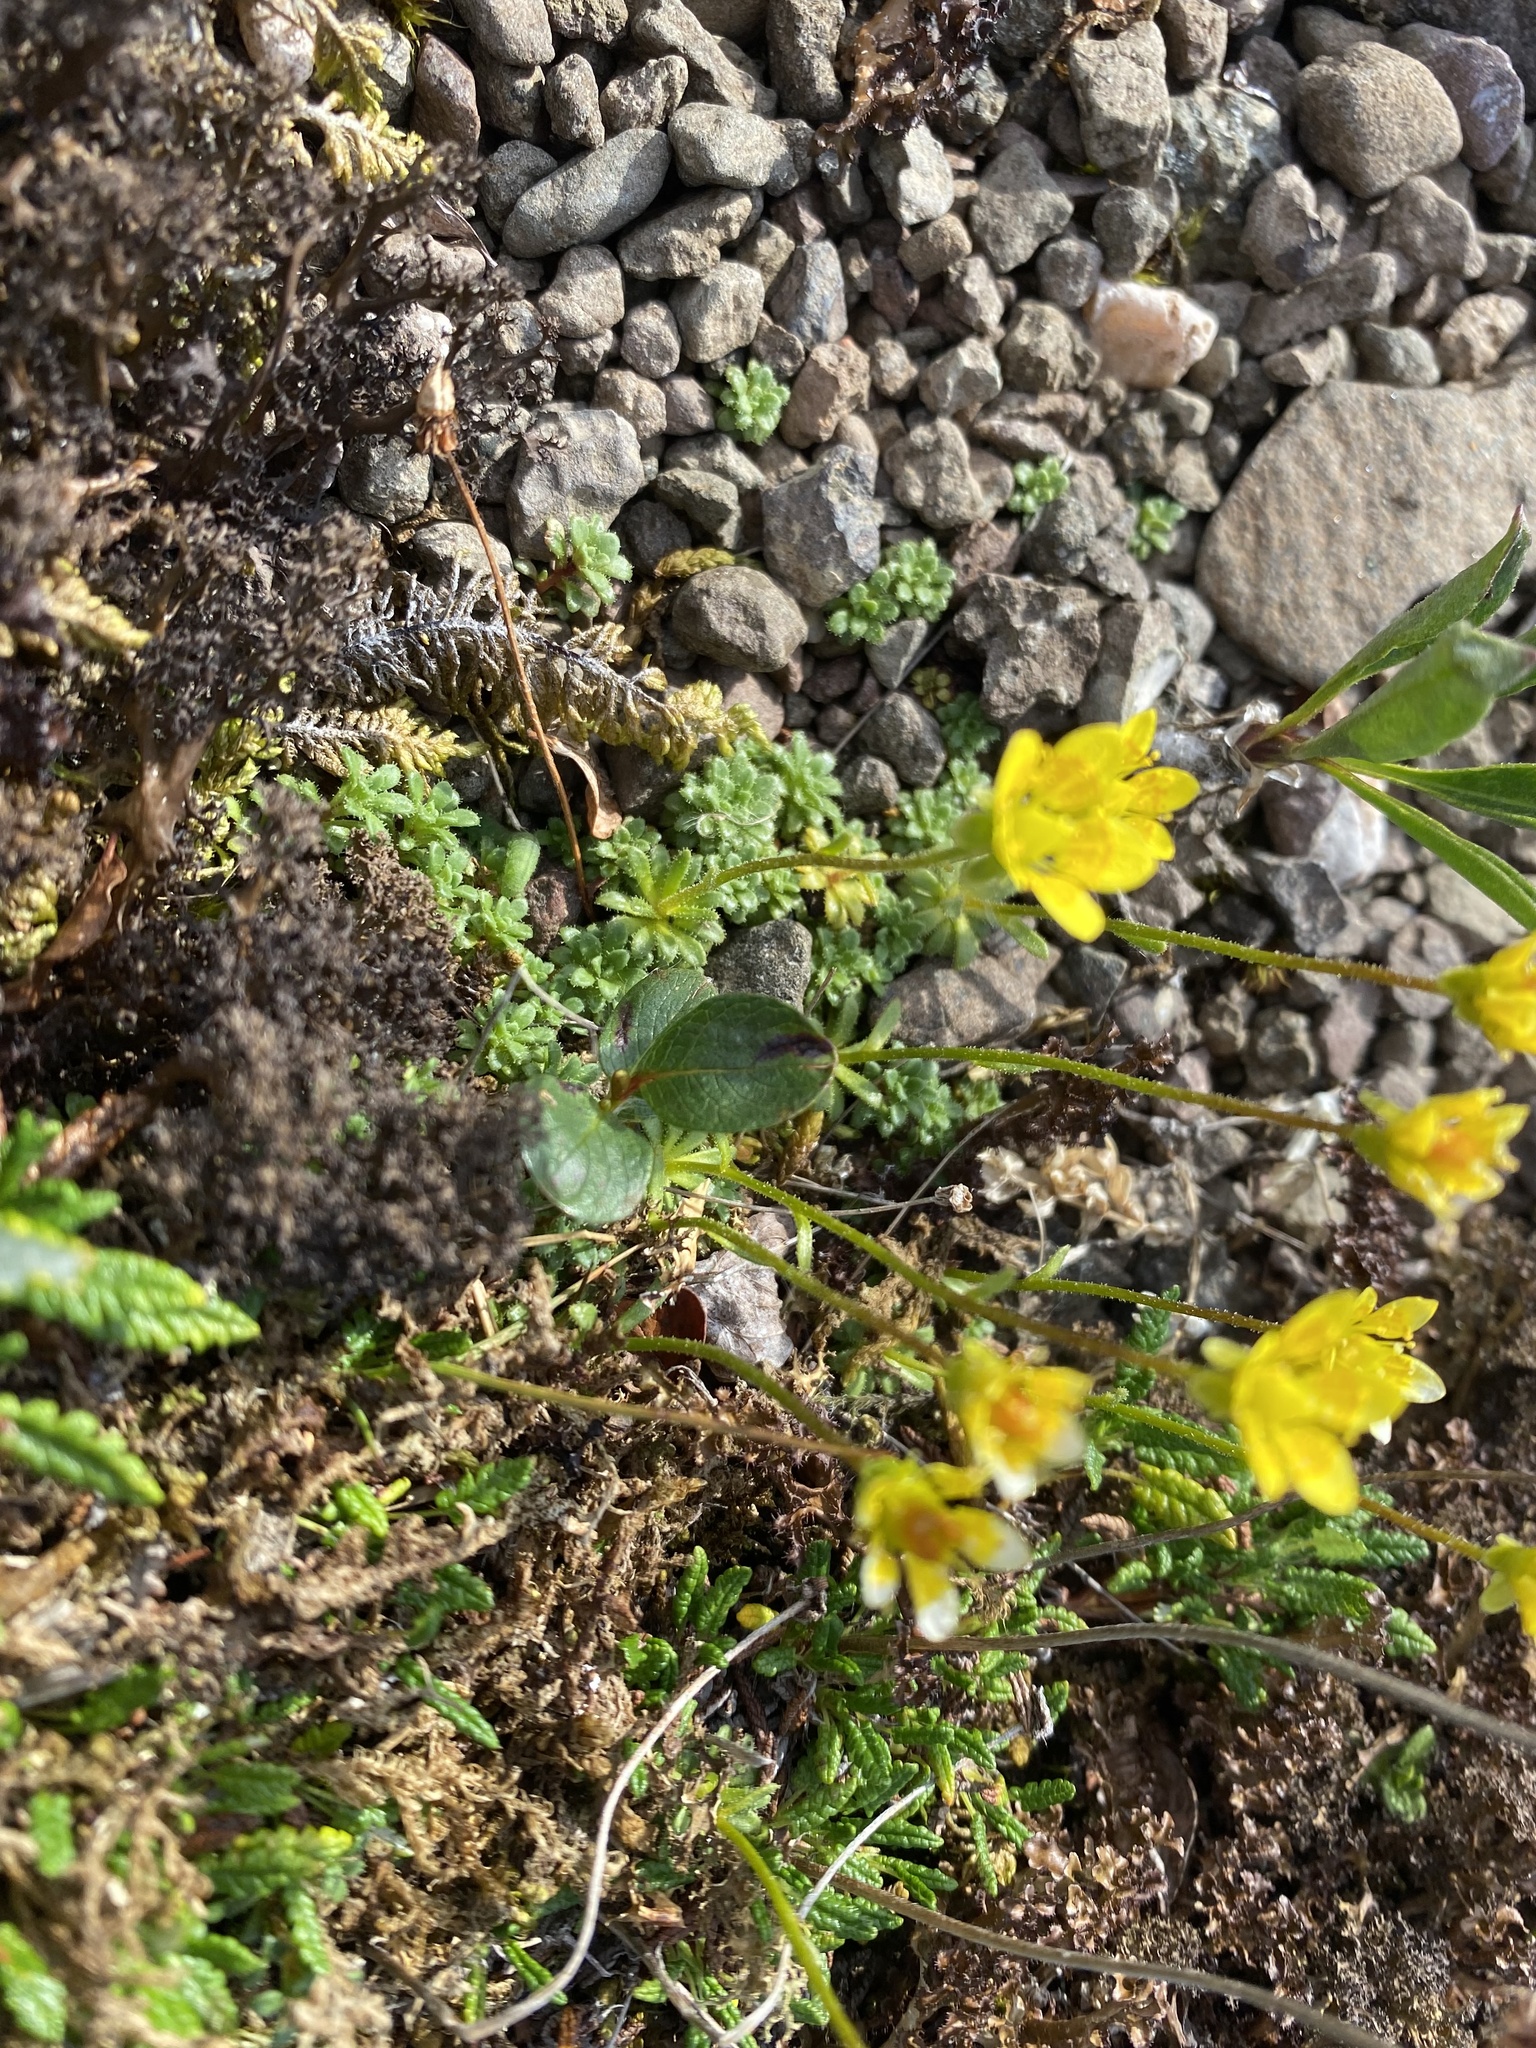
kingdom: Plantae
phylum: Tracheophyta
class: Magnoliopsida
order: Saxifragales
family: Saxifragaceae
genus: Saxifraga
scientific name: Saxifraga serpyllifolia
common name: Thyme-leaved saxifrage
